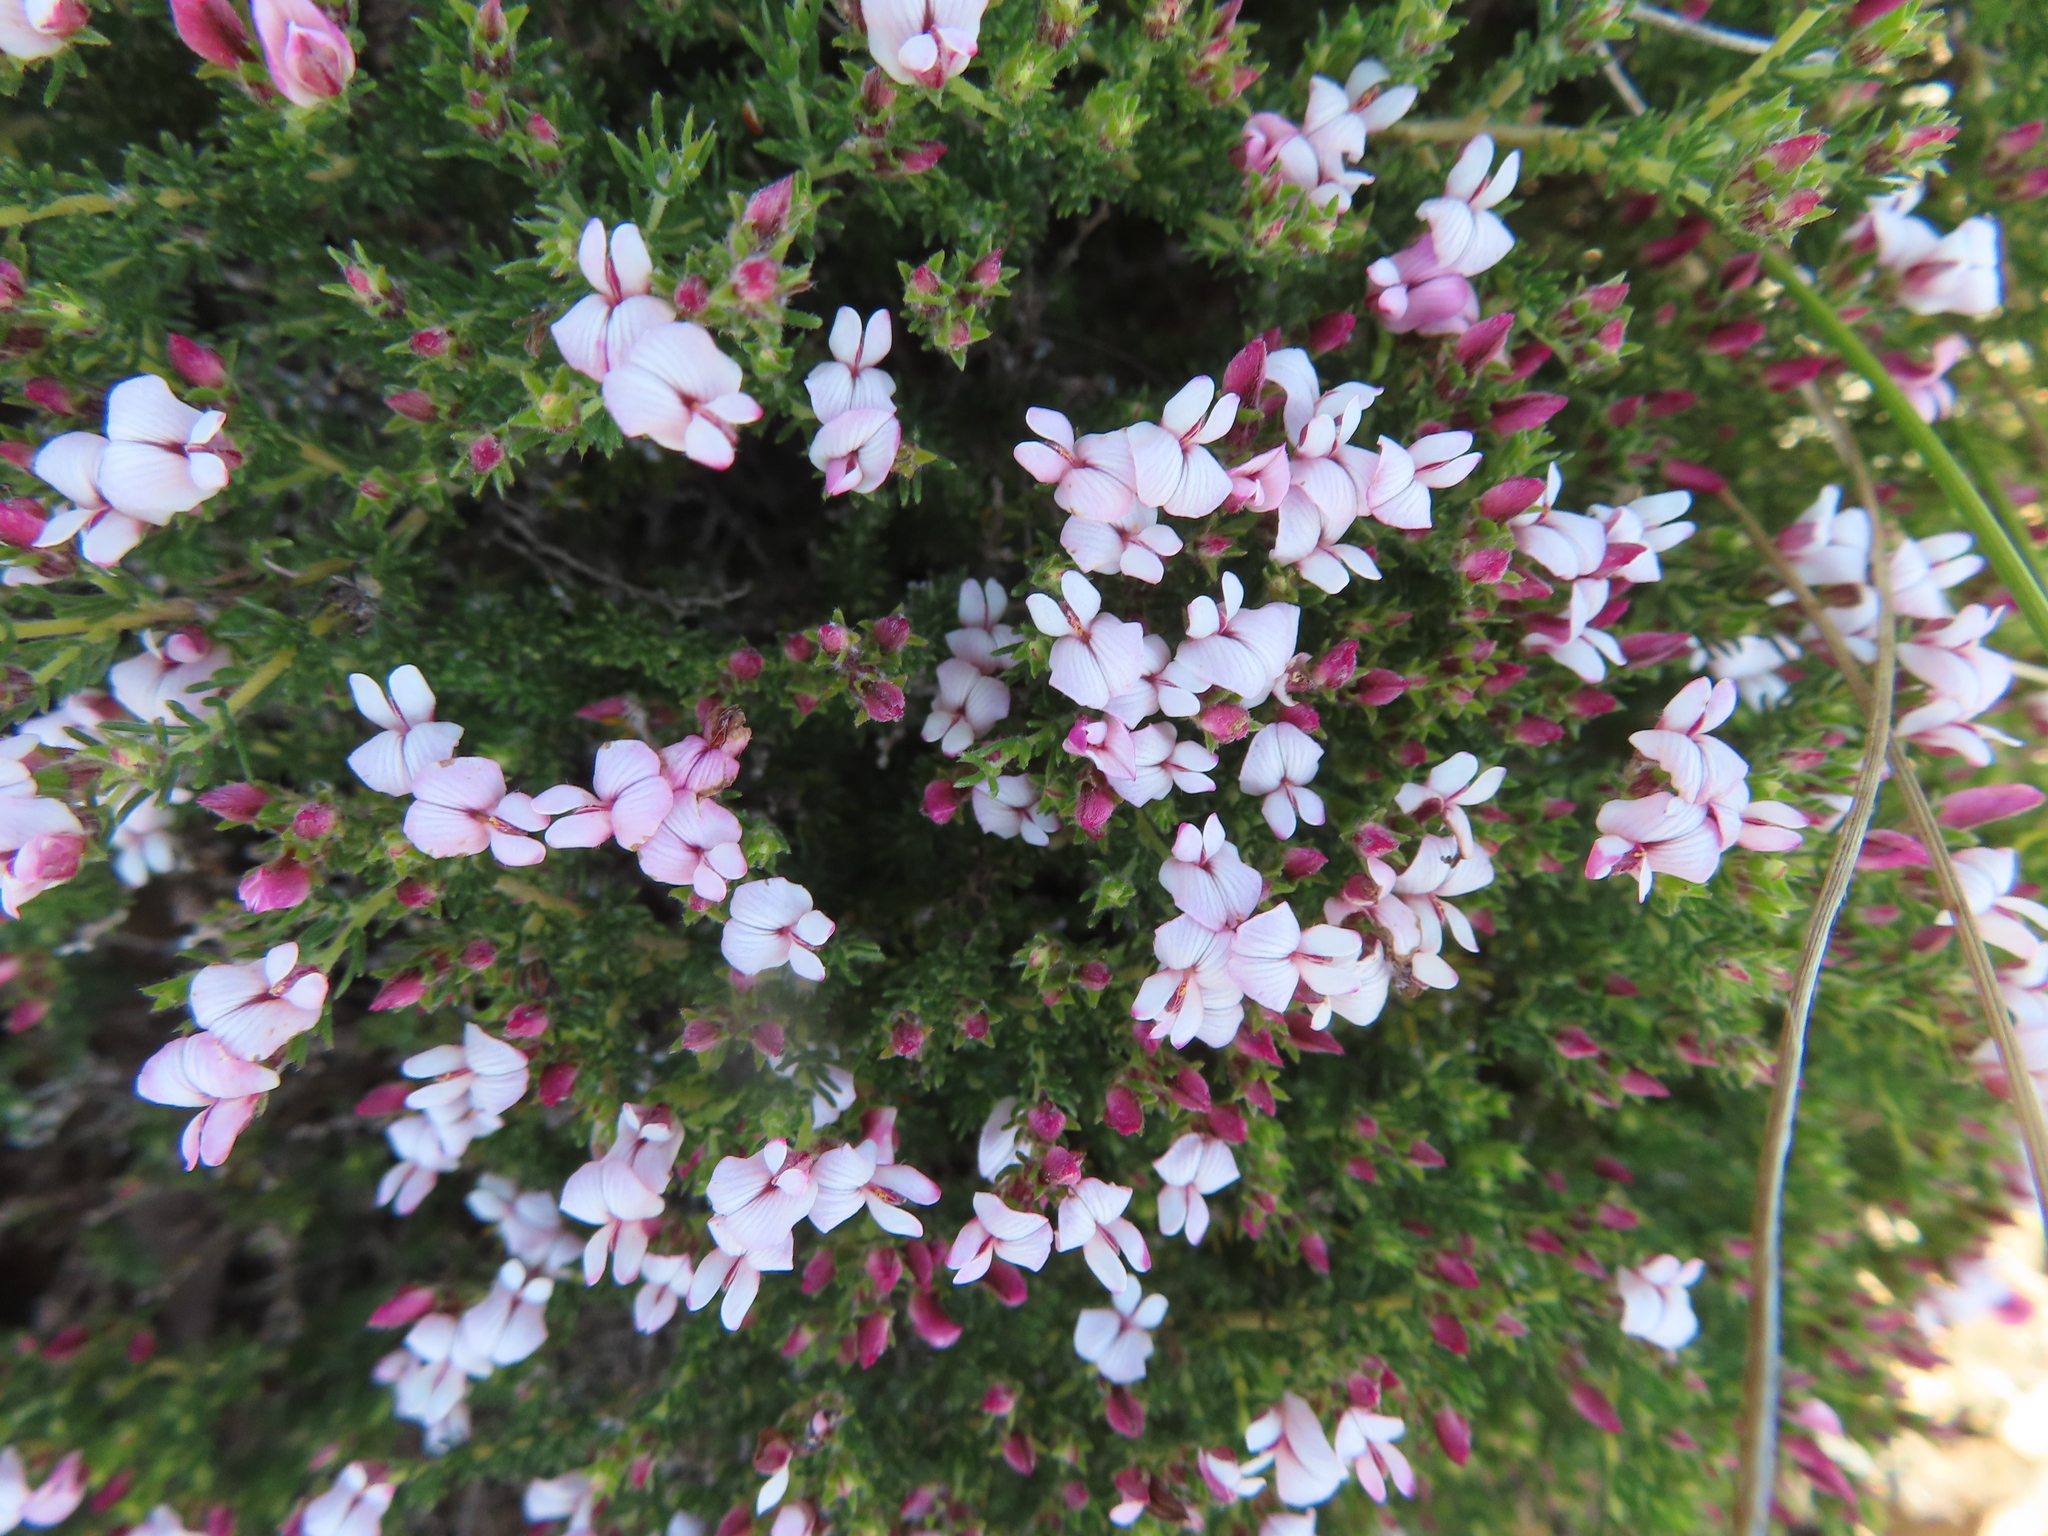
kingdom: Plantae
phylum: Tracheophyta
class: Magnoliopsida
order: Fabales
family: Fabaceae
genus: Aspalathus
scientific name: Aspalathus submissa
